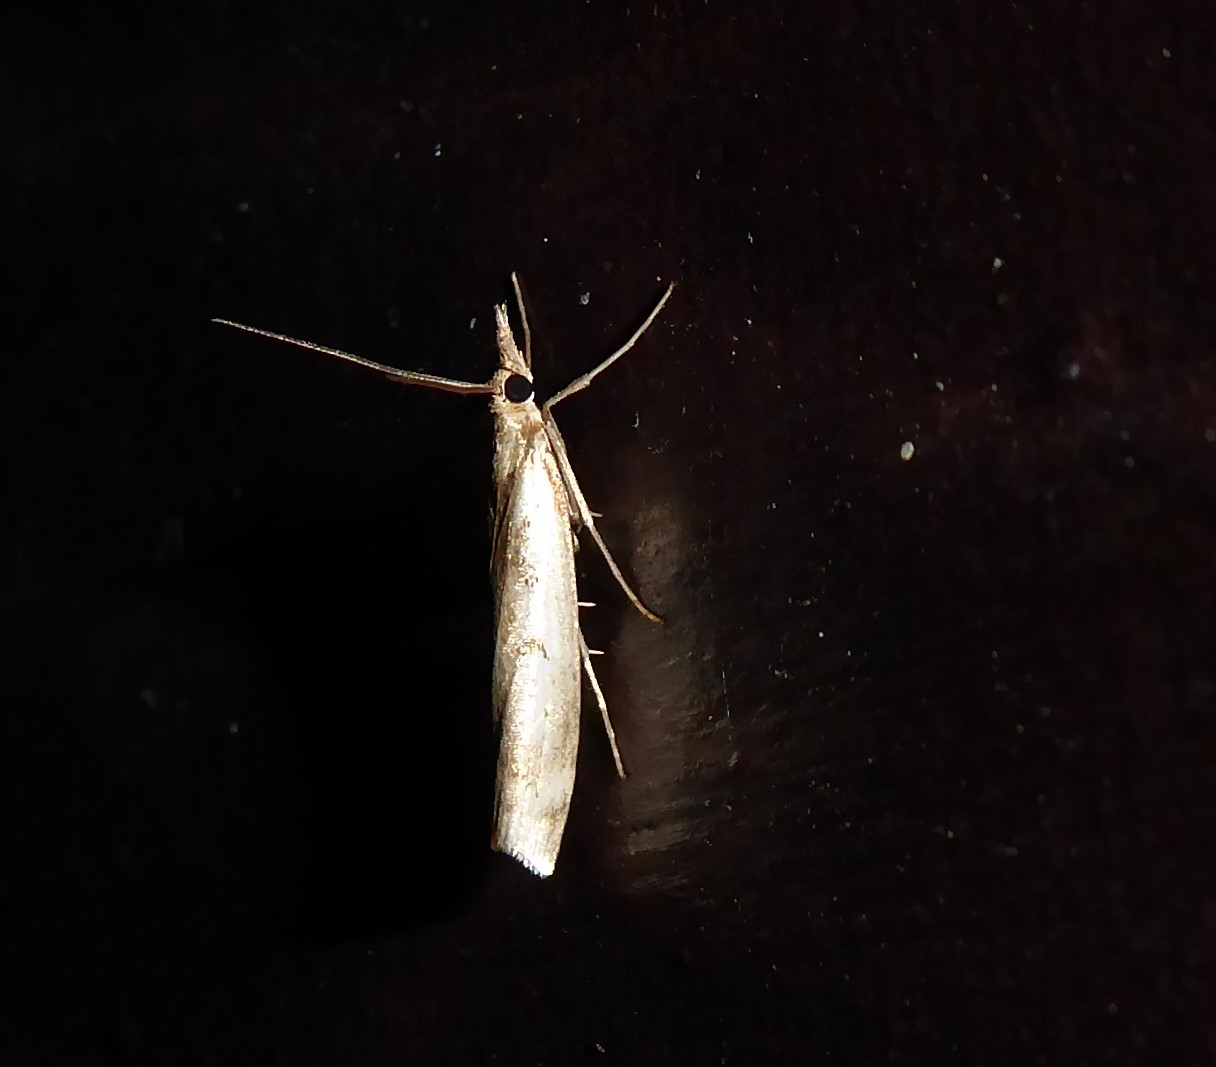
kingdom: Animalia
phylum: Arthropoda
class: Insecta
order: Lepidoptera
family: Crambidae
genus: Orocrambus
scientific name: Orocrambus vulgaris
